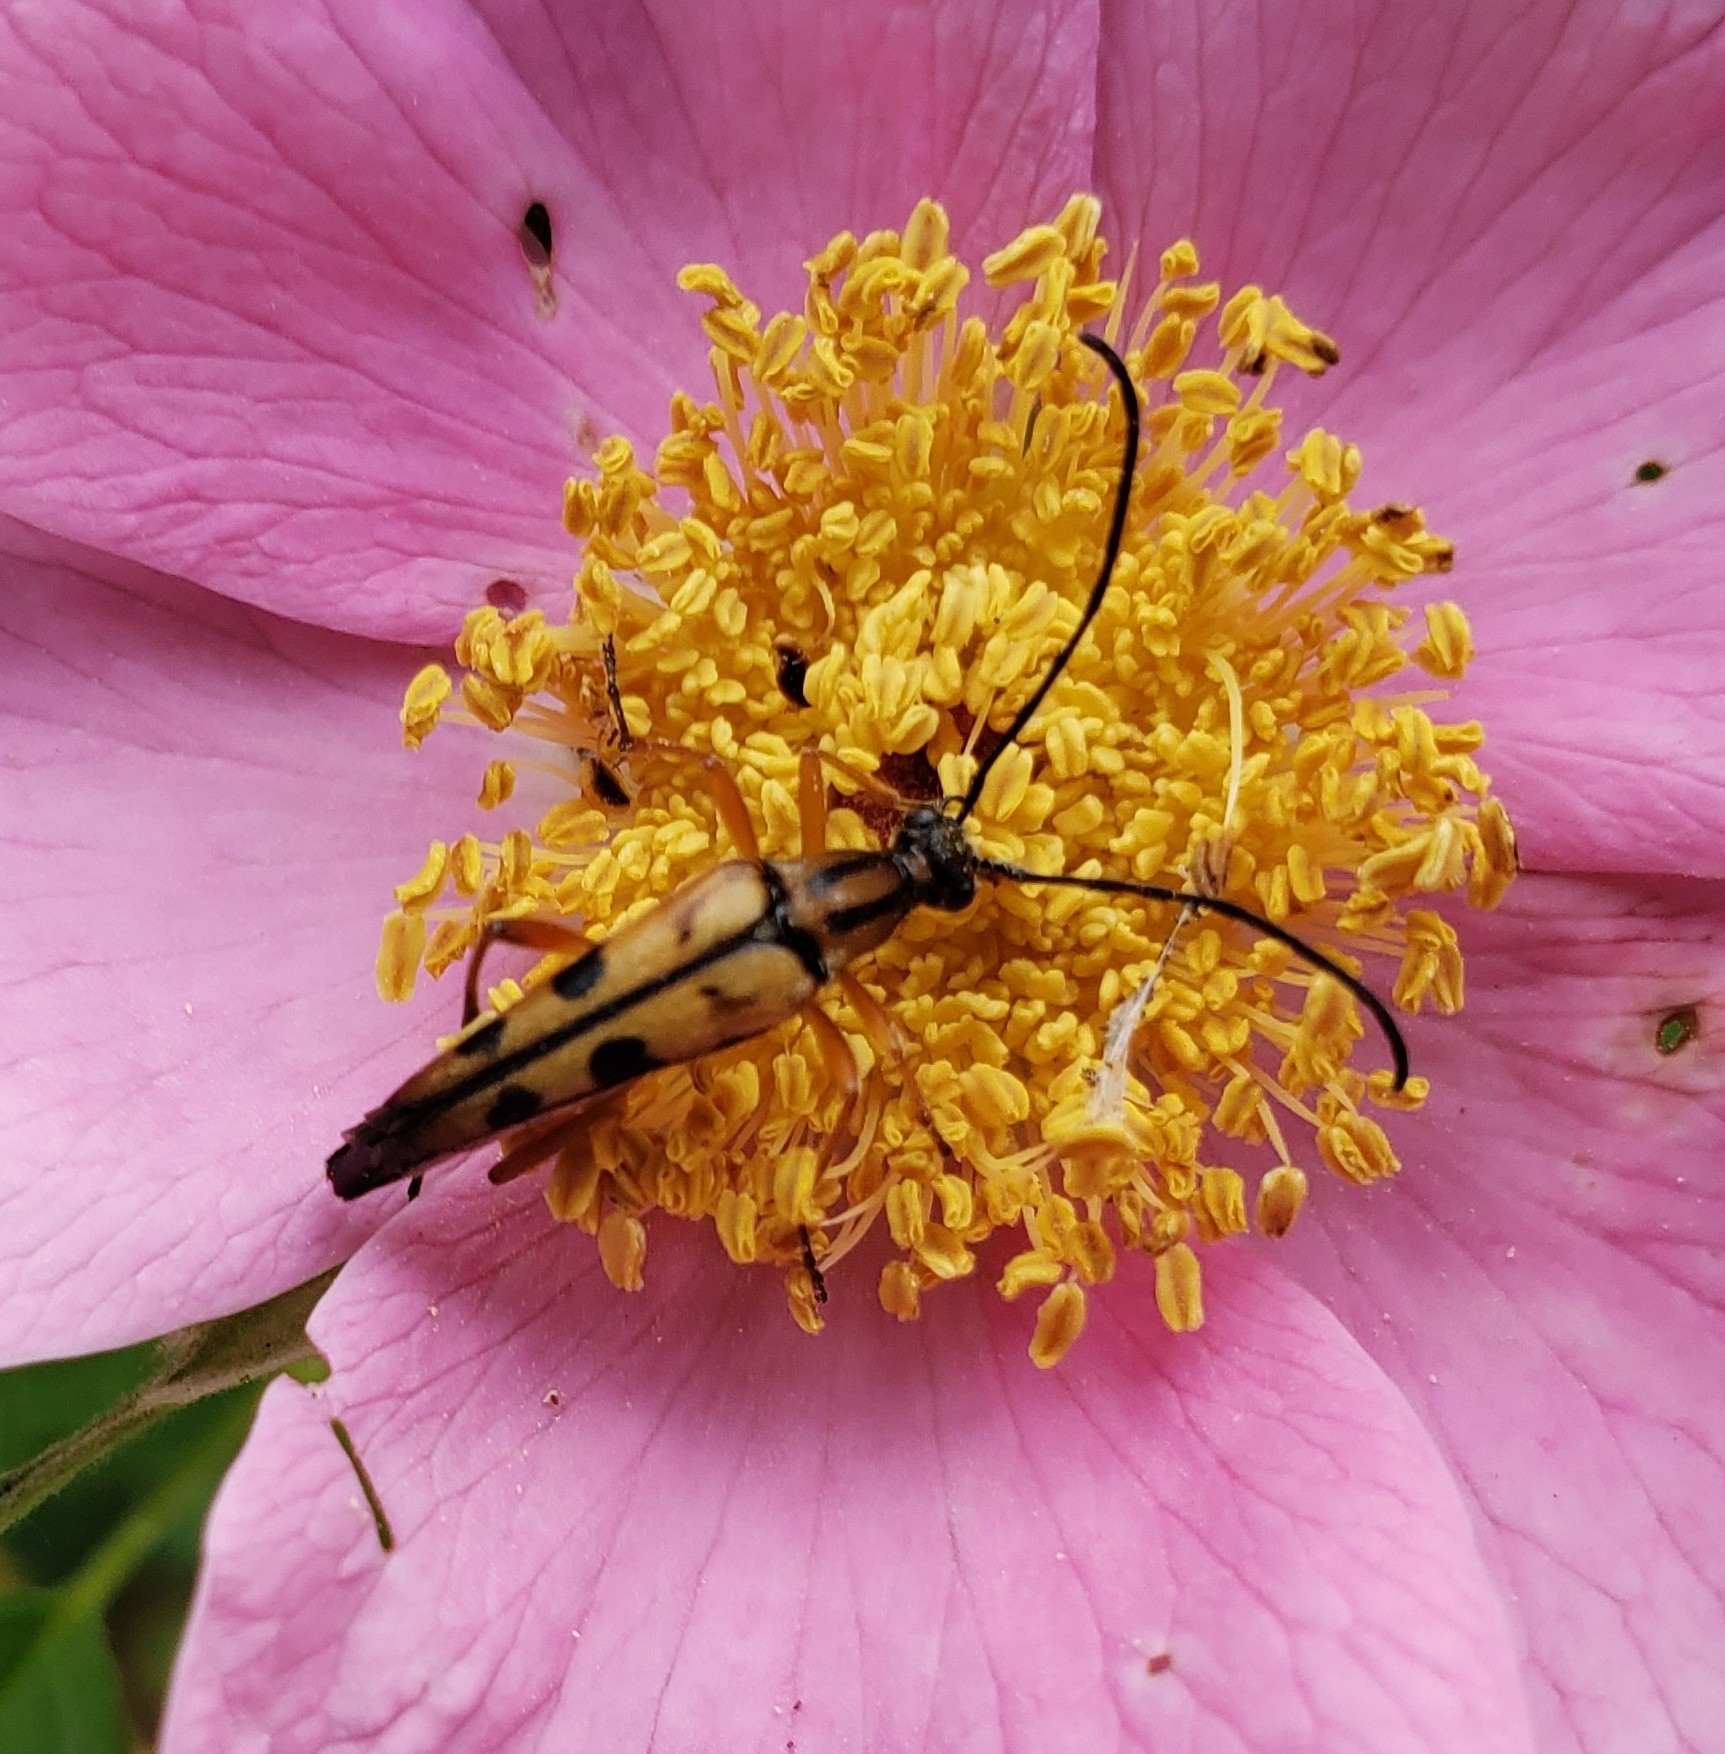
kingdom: Animalia
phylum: Arthropoda
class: Insecta
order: Coleoptera
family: Cerambycidae
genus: Strangalia
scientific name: Strangalia famelica
